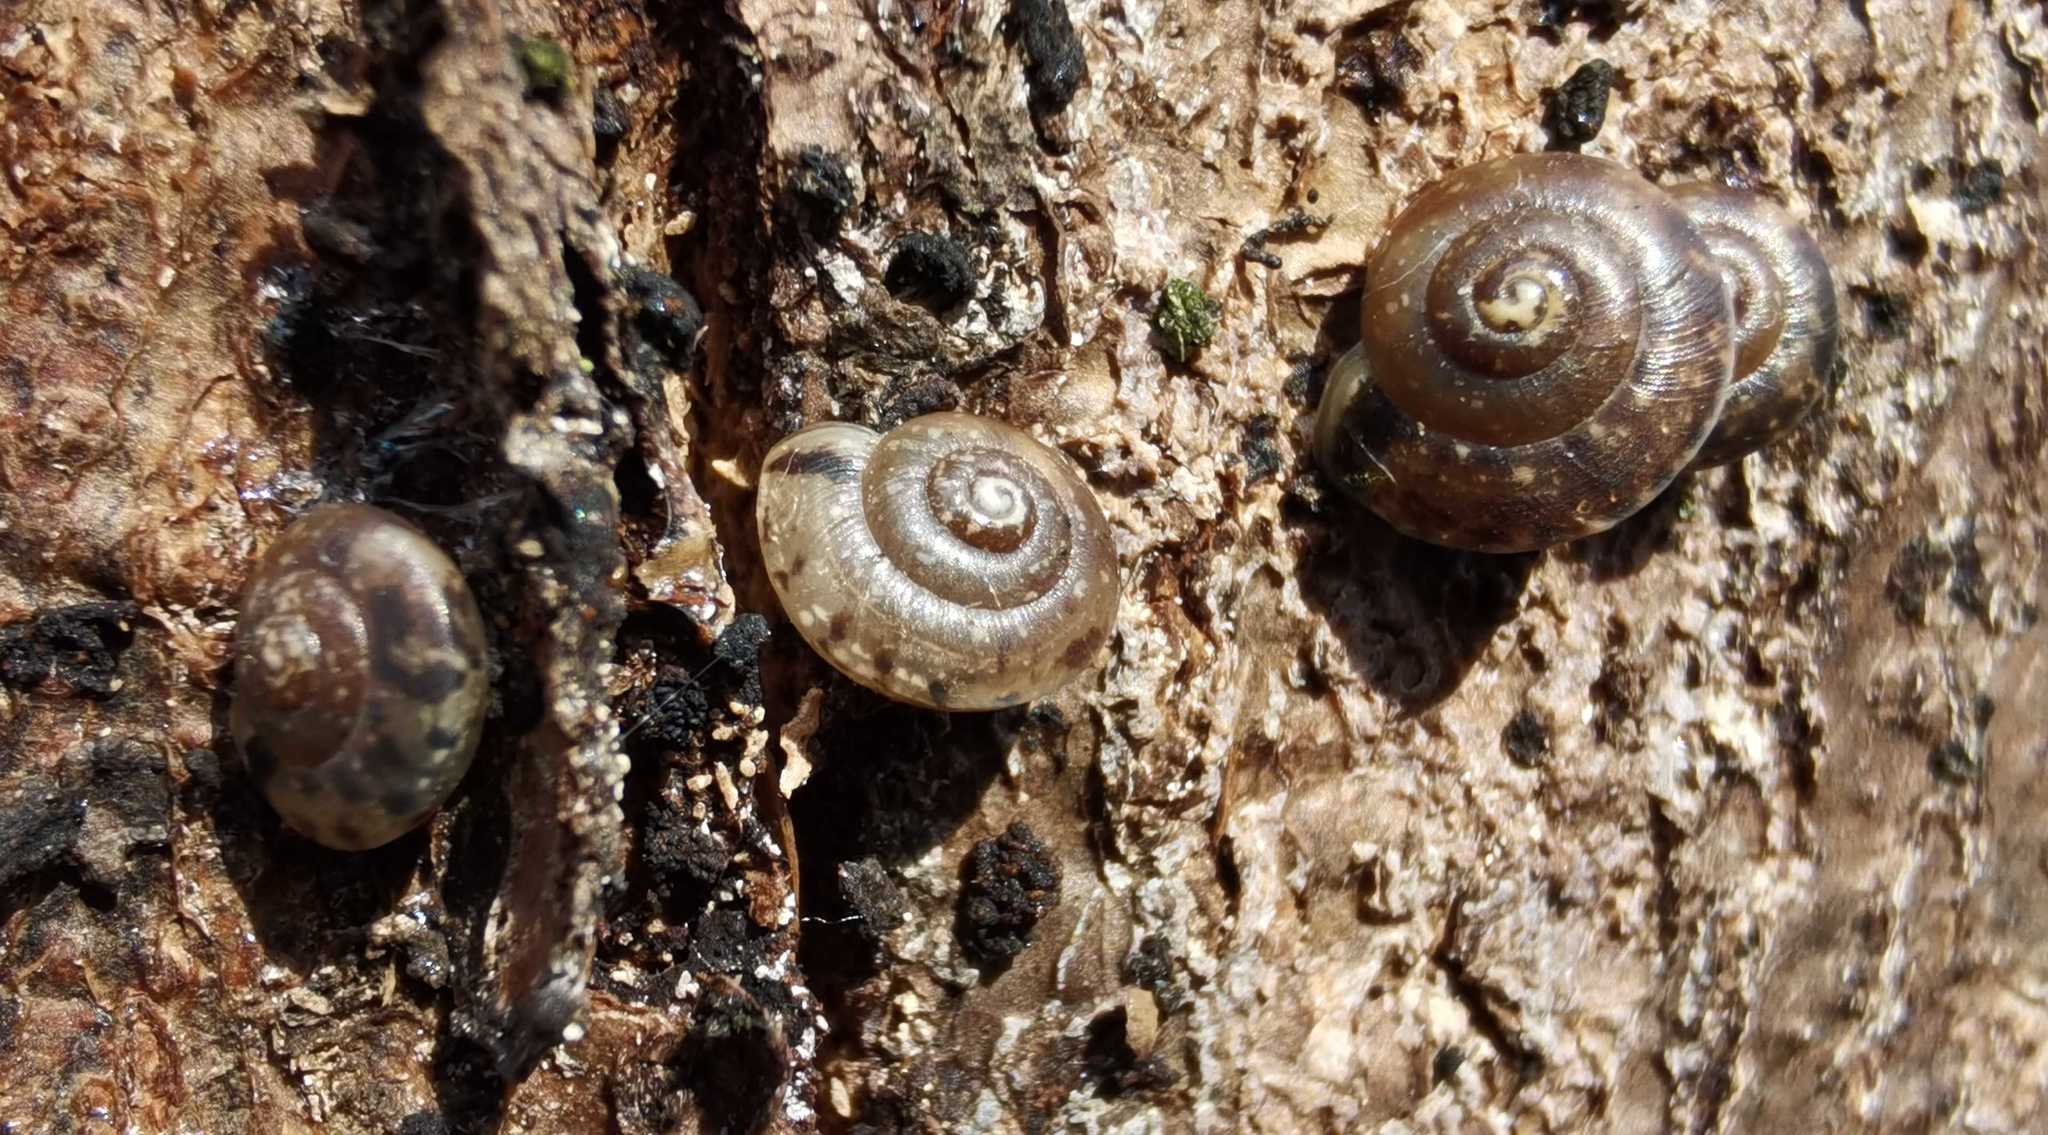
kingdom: Animalia
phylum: Mollusca
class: Gastropoda
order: Stylommatophora
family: Hygromiidae
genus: Hygromia
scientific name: Hygromia cinctella
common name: Girdled snail
